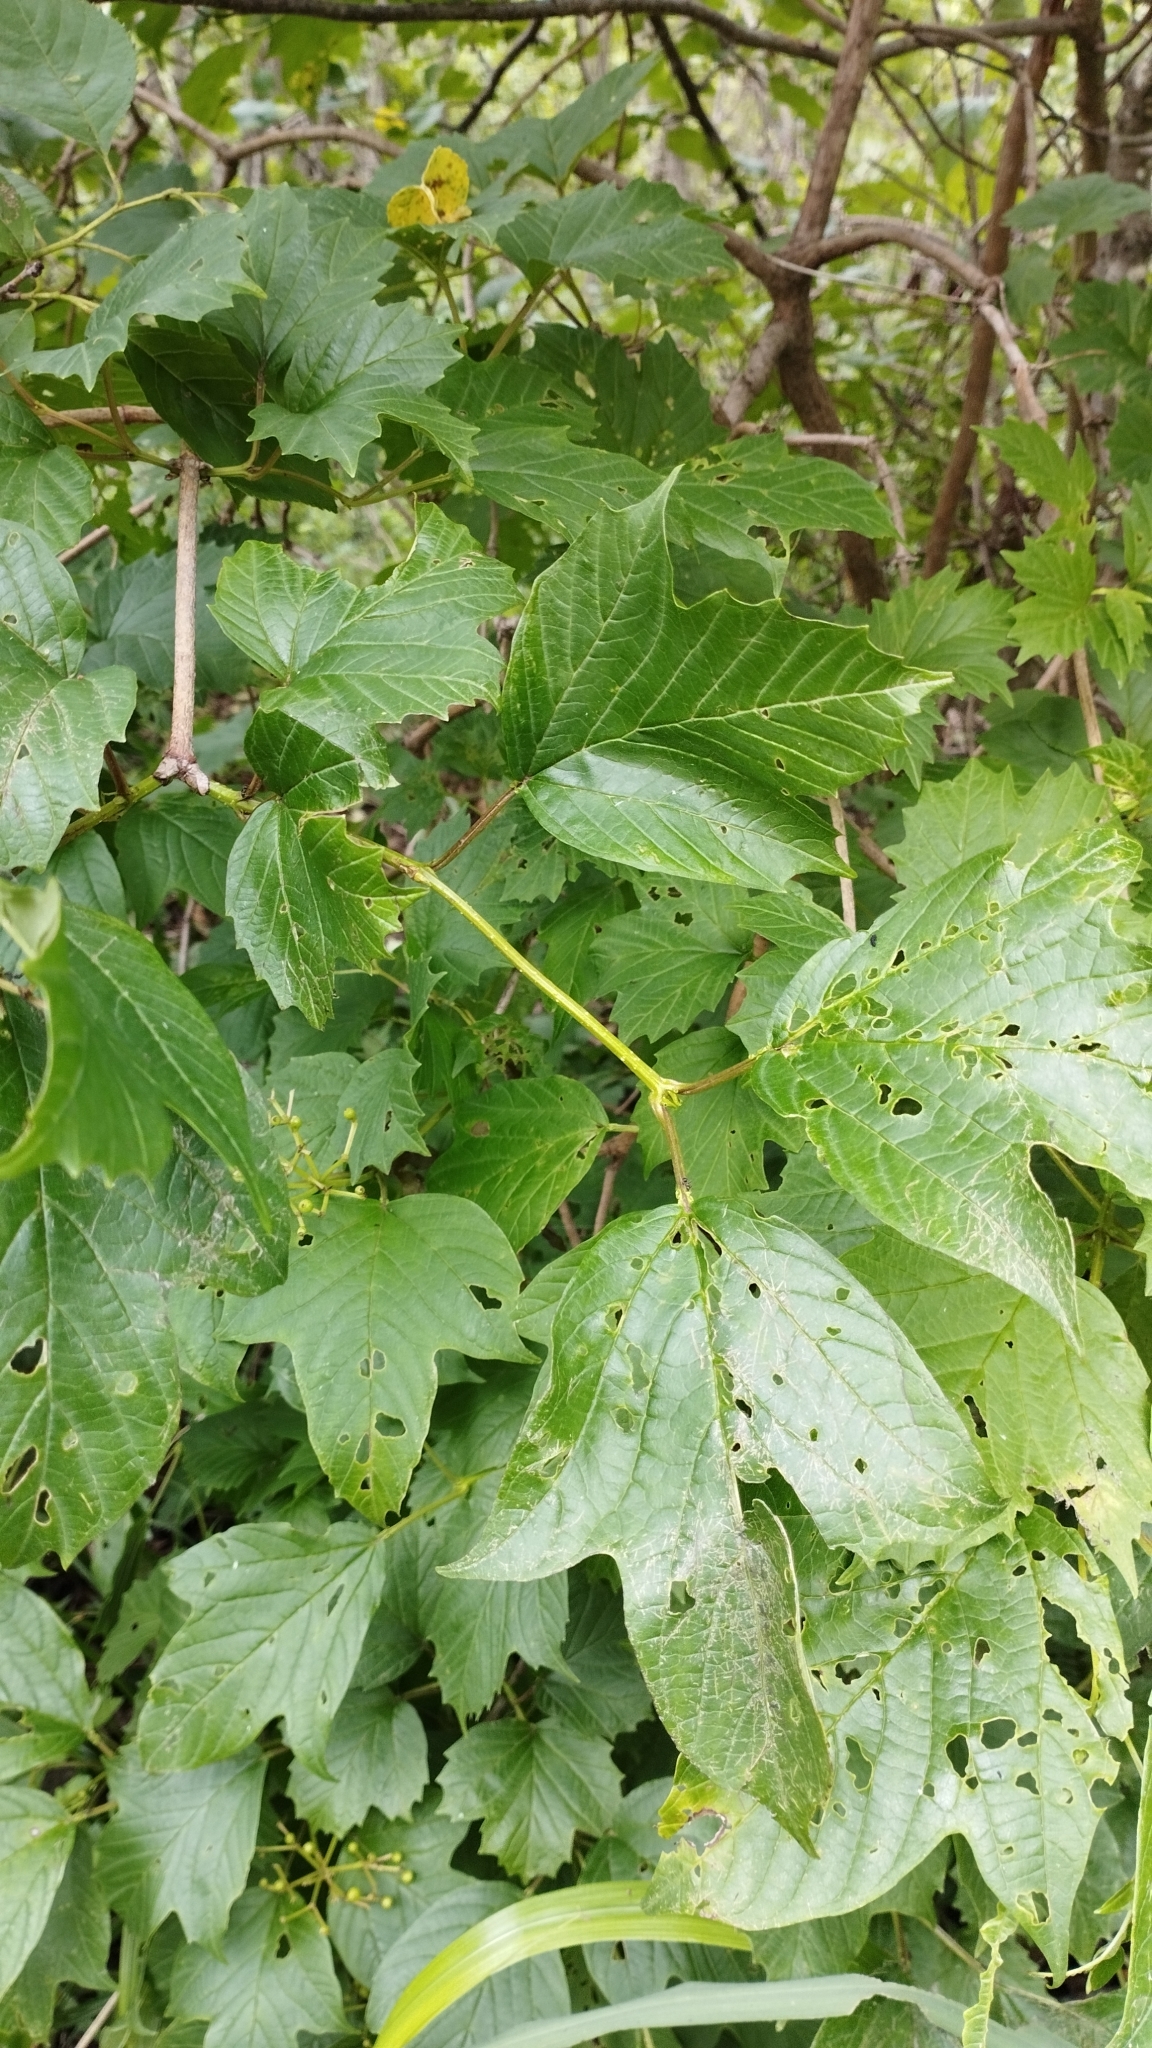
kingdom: Plantae
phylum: Tracheophyta
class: Magnoliopsida
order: Dipsacales
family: Viburnaceae
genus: Viburnum
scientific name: Viburnum sargentii
